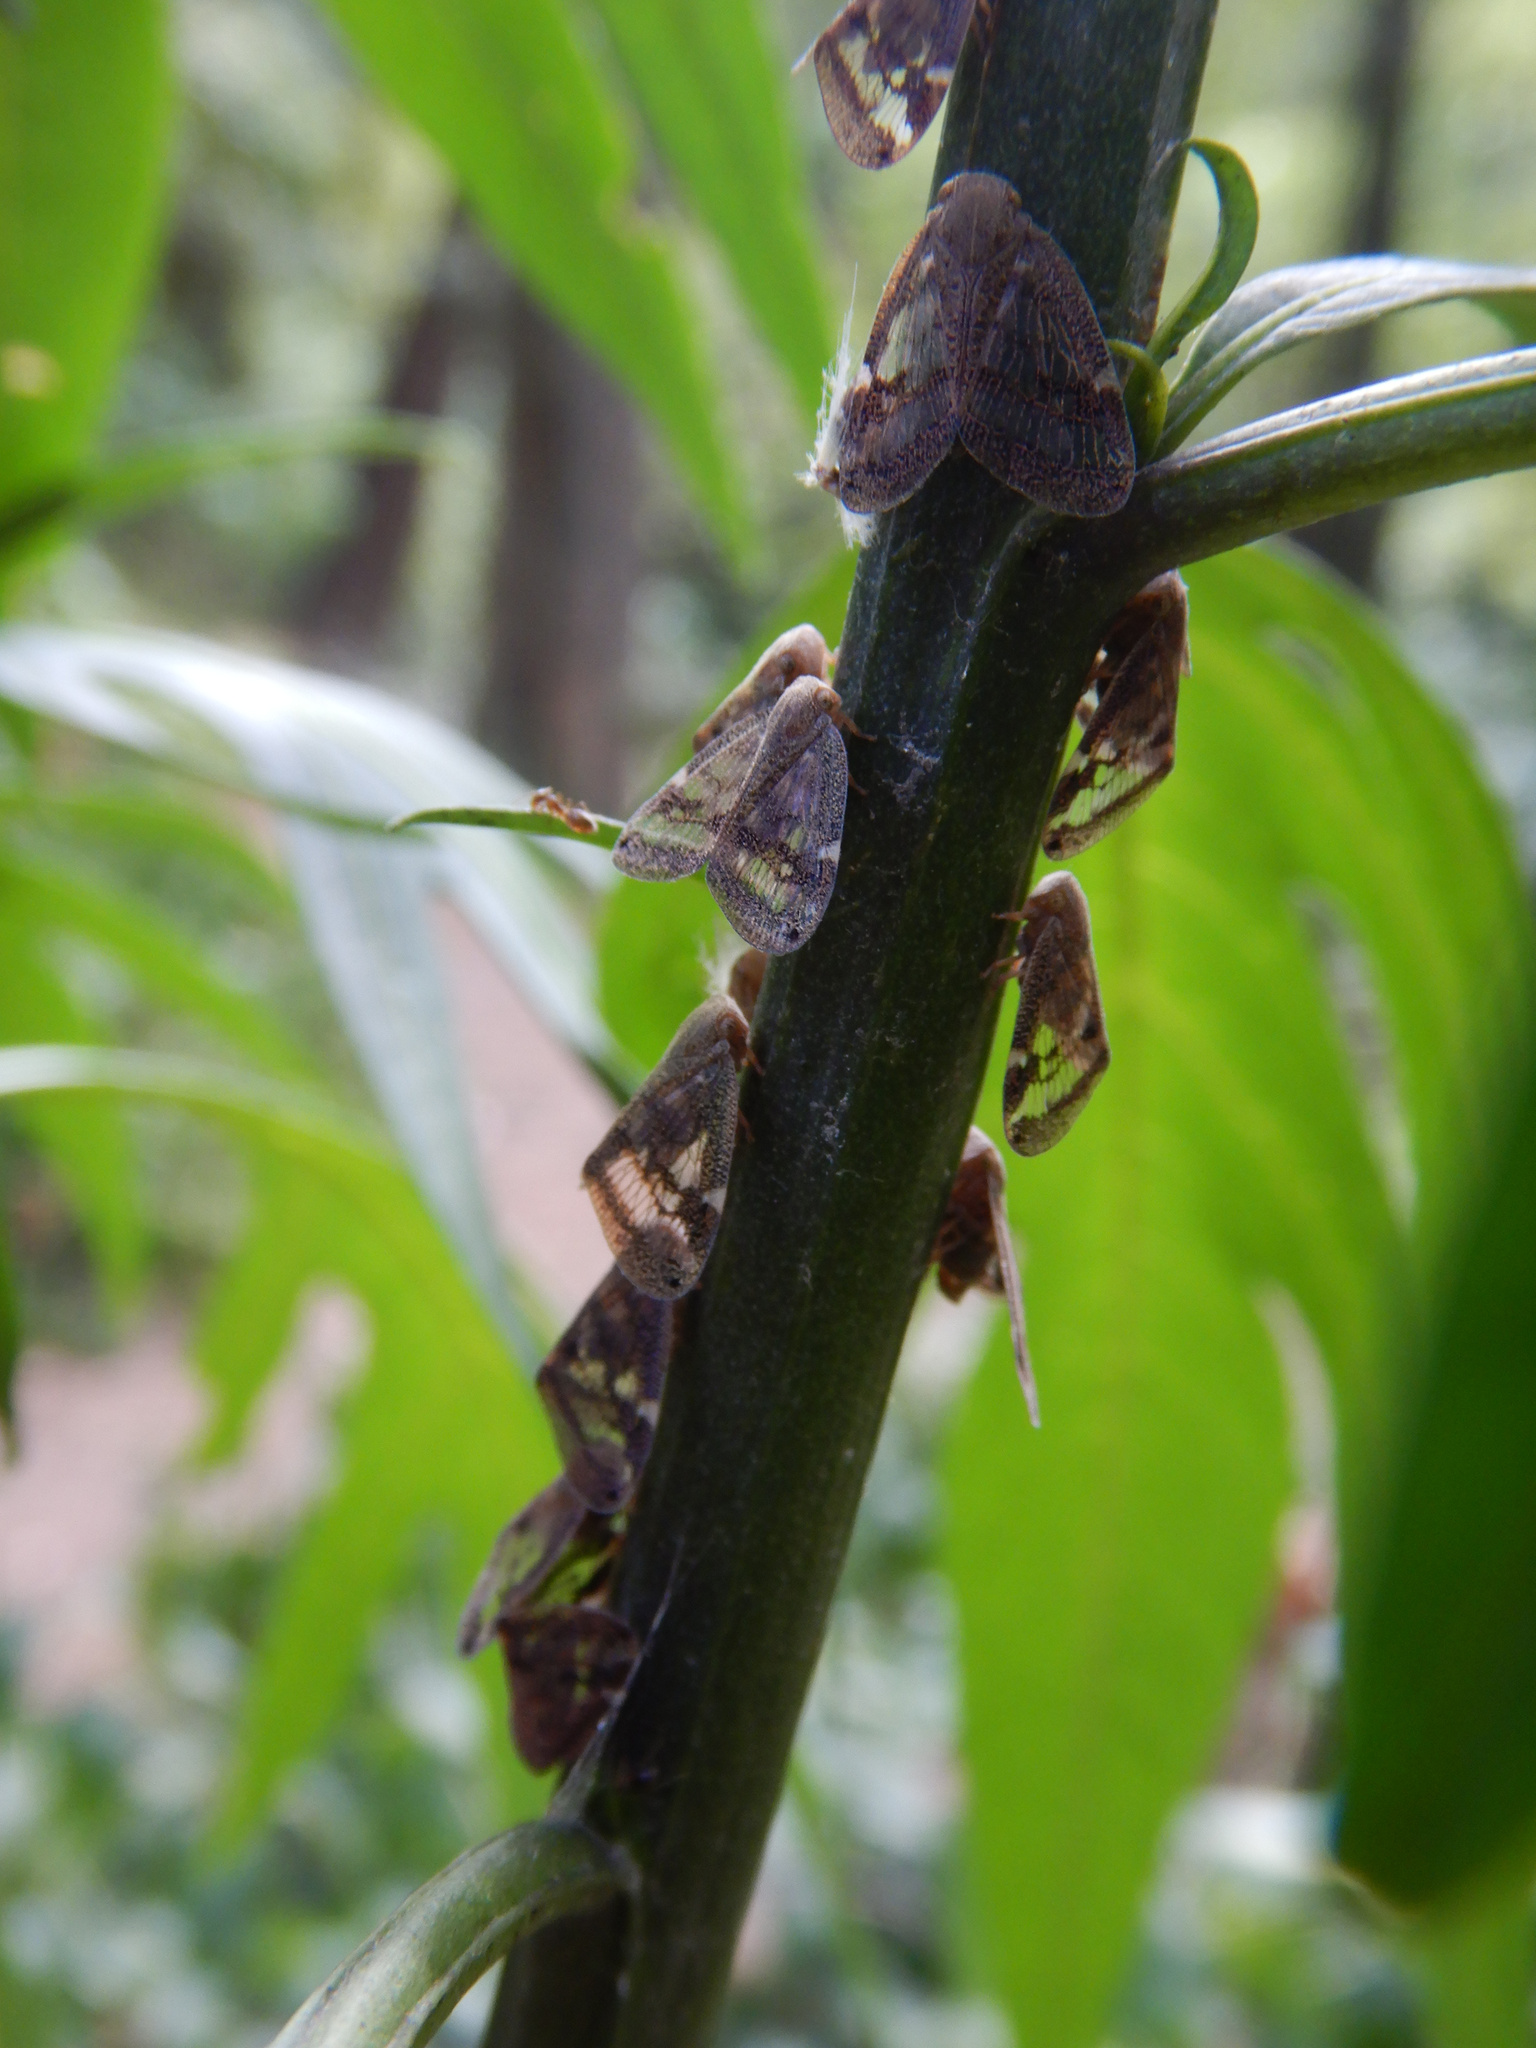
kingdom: Animalia
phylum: Arthropoda
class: Insecta
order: Hemiptera
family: Ricaniidae
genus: Scolypopa
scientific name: Scolypopa australis
